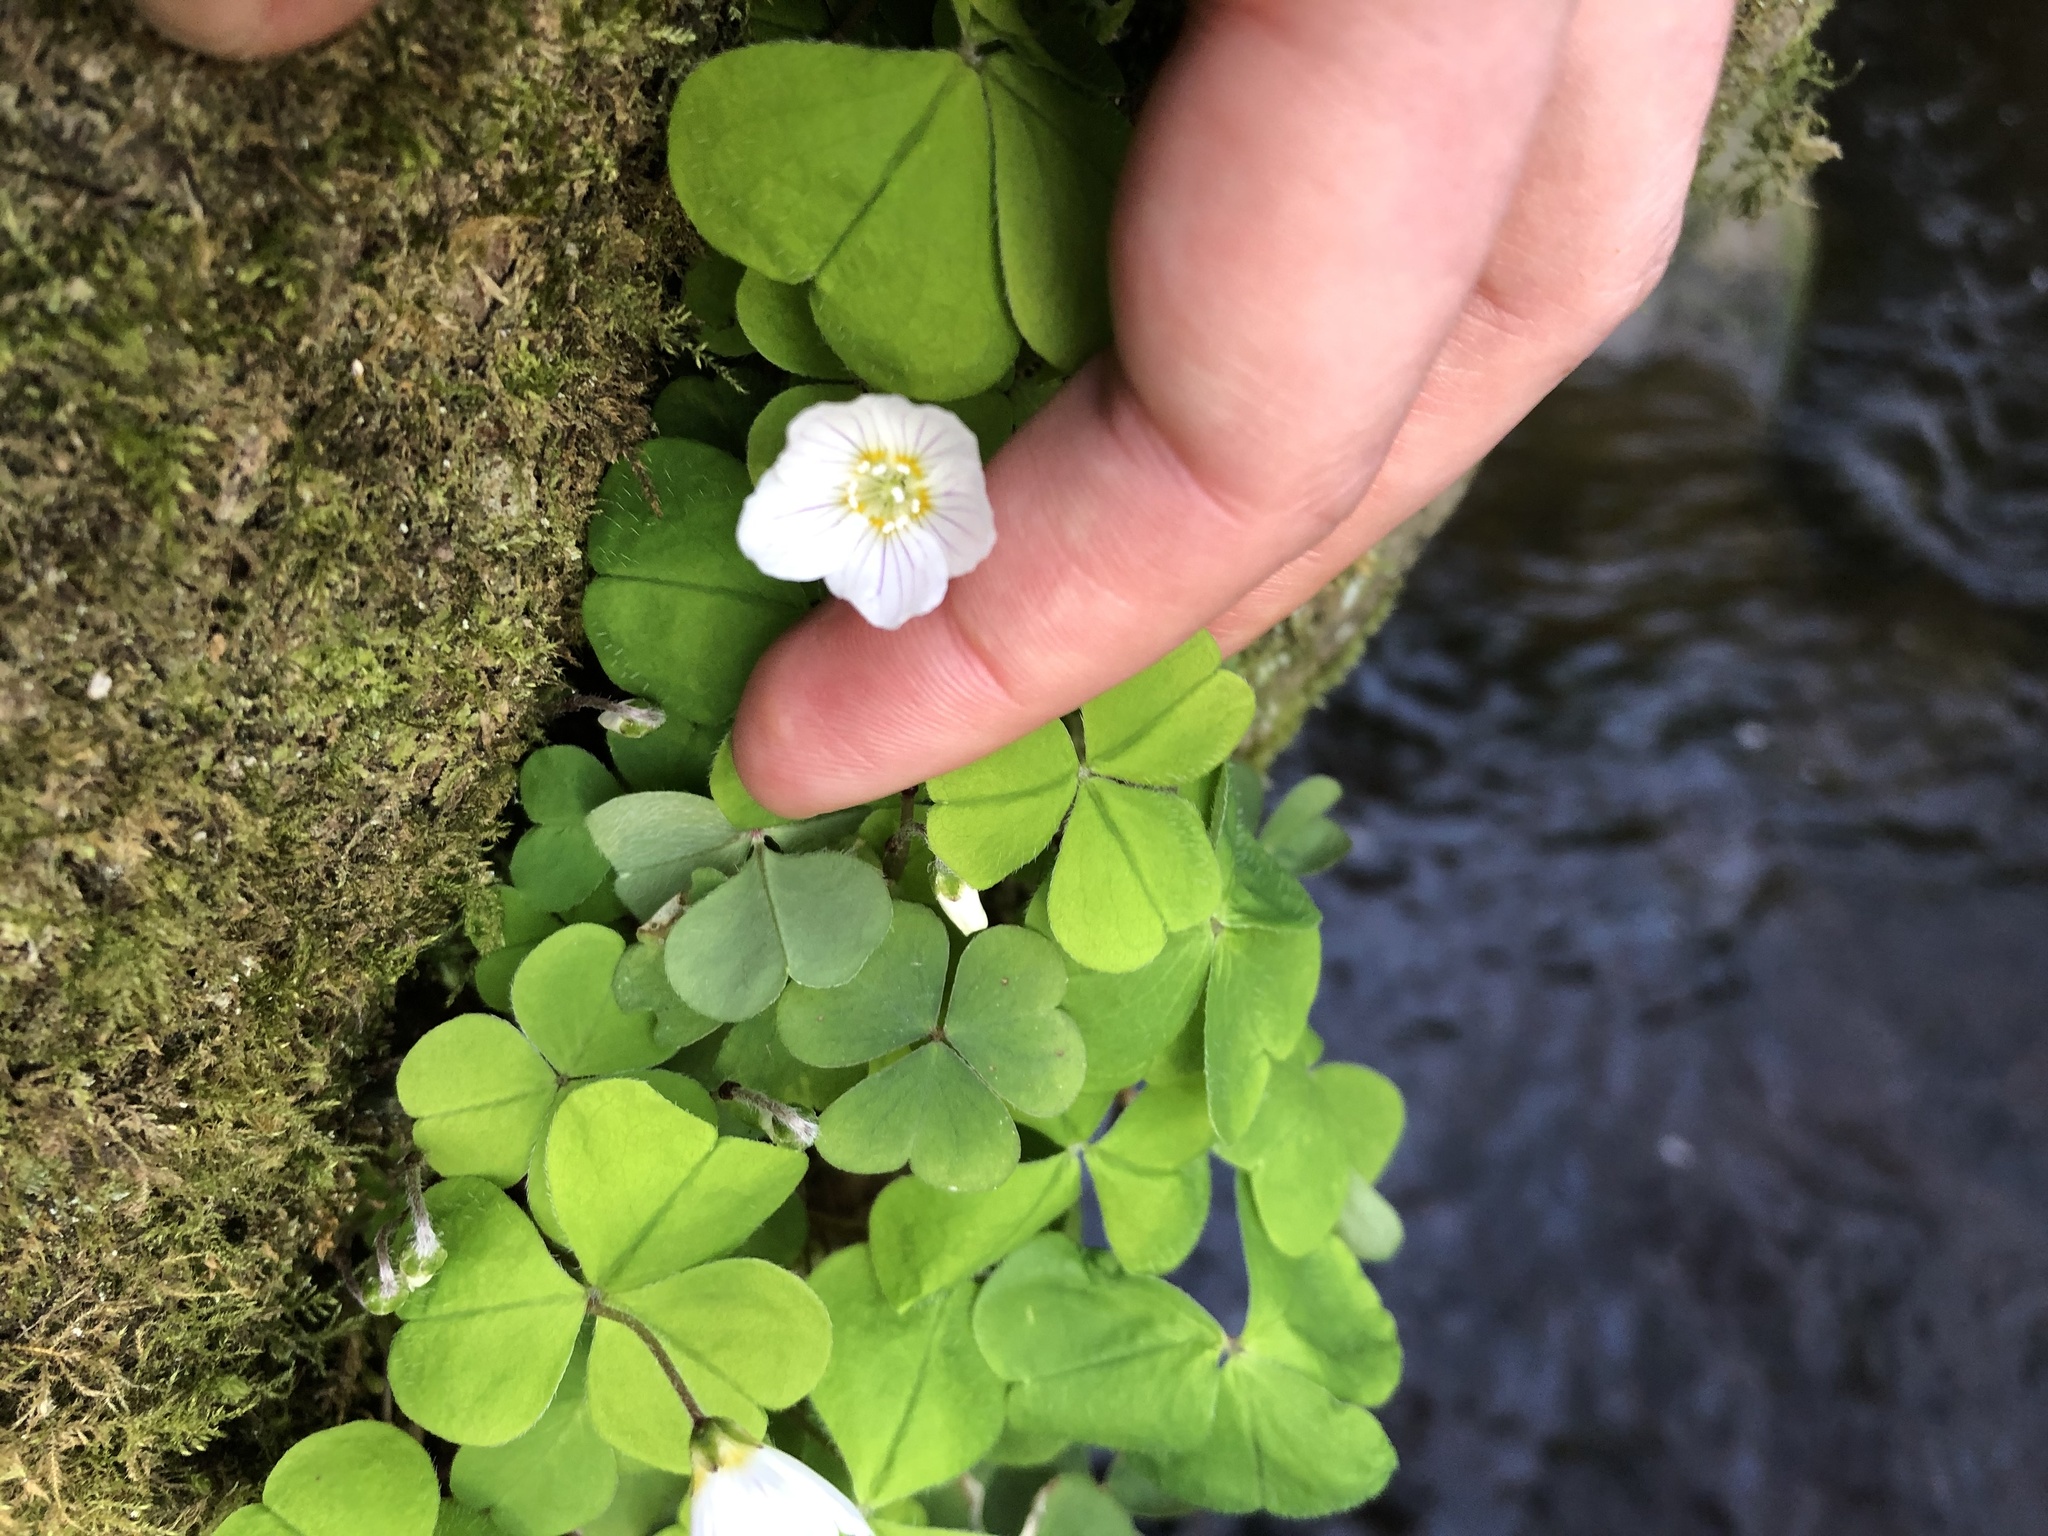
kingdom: Plantae
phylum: Tracheophyta
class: Magnoliopsida
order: Oxalidales
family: Oxalidaceae
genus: Oxalis
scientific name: Oxalis acetosella
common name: Wood-sorrel
